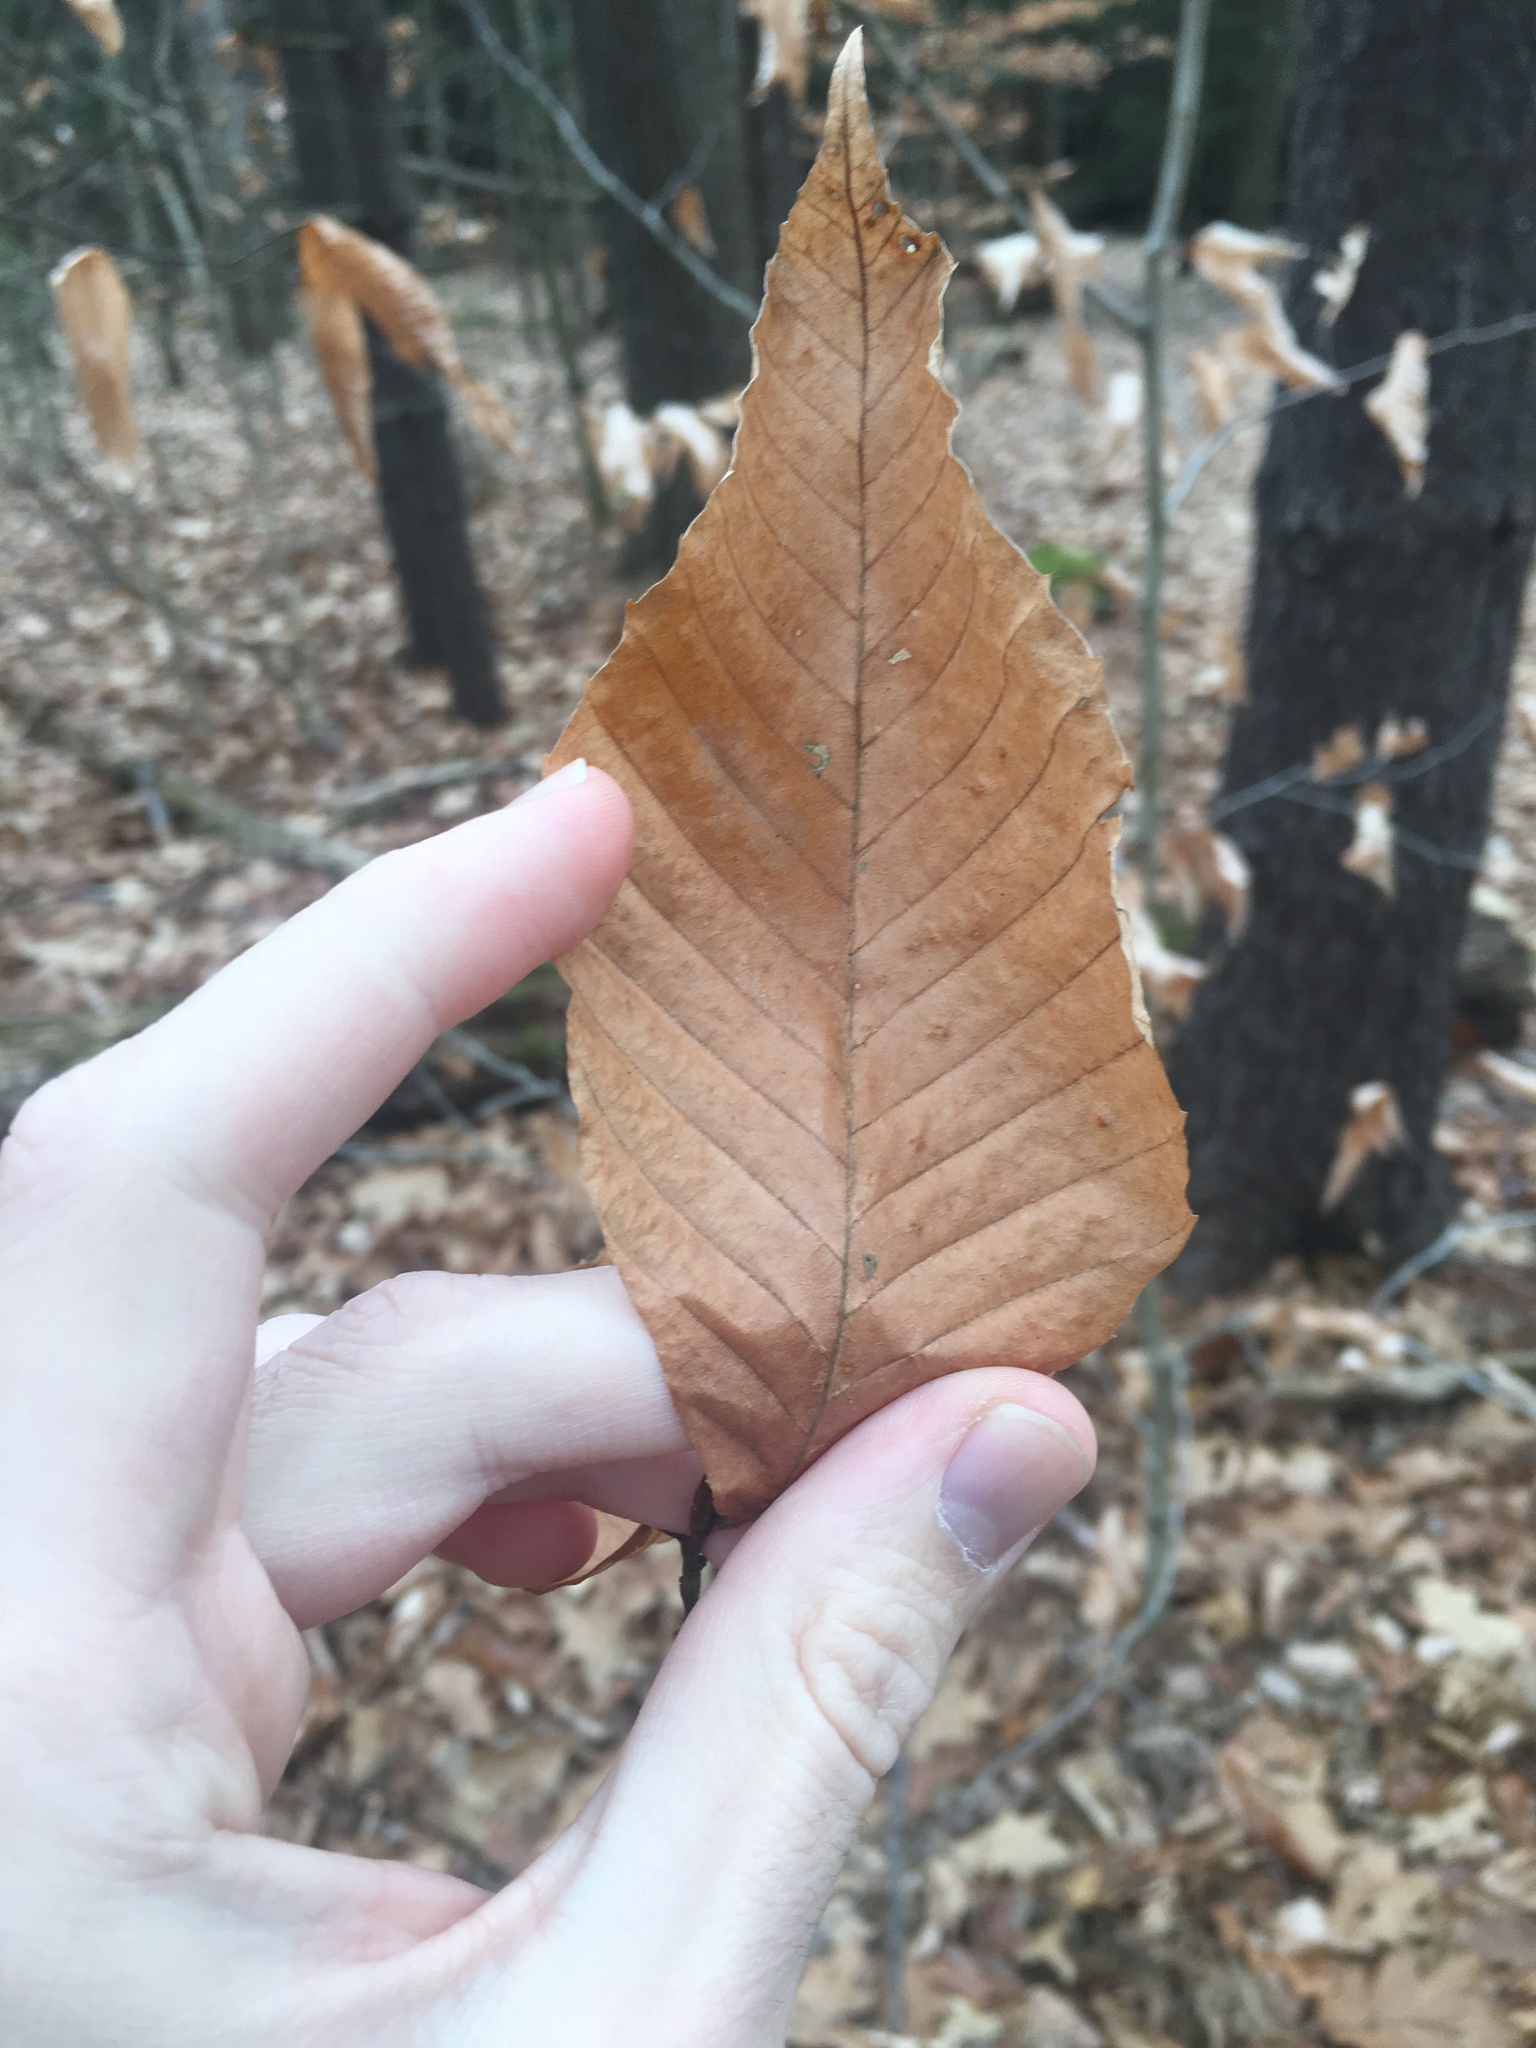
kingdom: Plantae
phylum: Tracheophyta
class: Magnoliopsida
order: Fagales
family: Fagaceae
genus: Fagus
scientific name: Fagus grandifolia
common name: American beech
